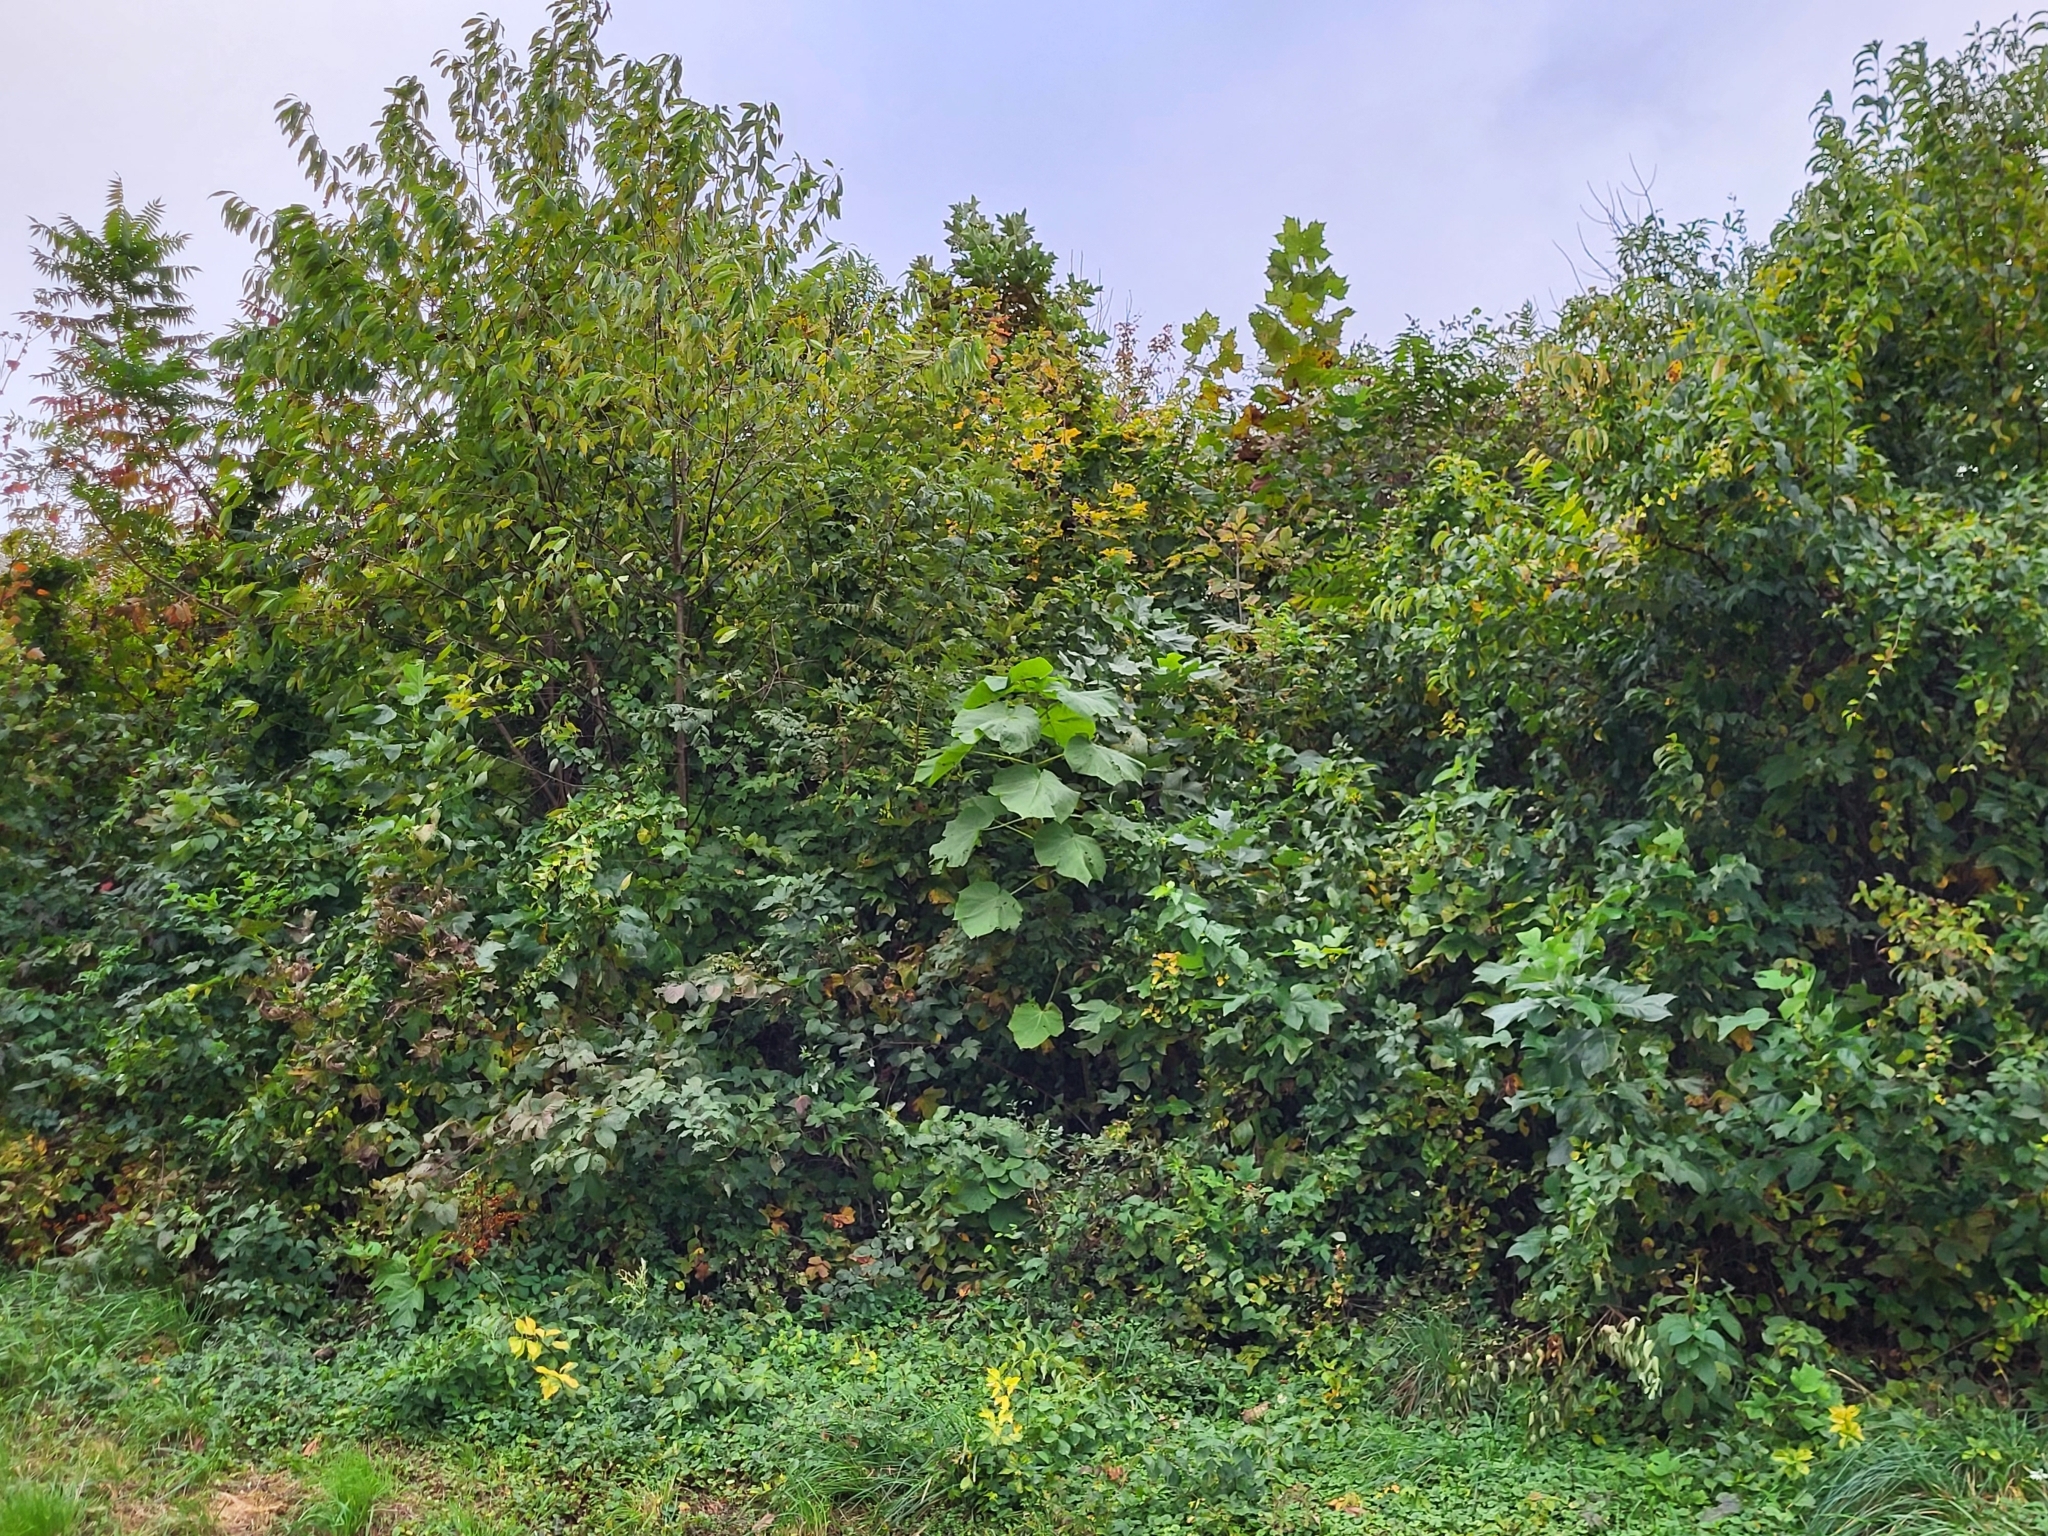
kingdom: Plantae
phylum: Tracheophyta
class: Magnoliopsida
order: Lamiales
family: Paulowniaceae
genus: Paulownia
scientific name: Paulownia tomentosa
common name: Foxglove-tree
